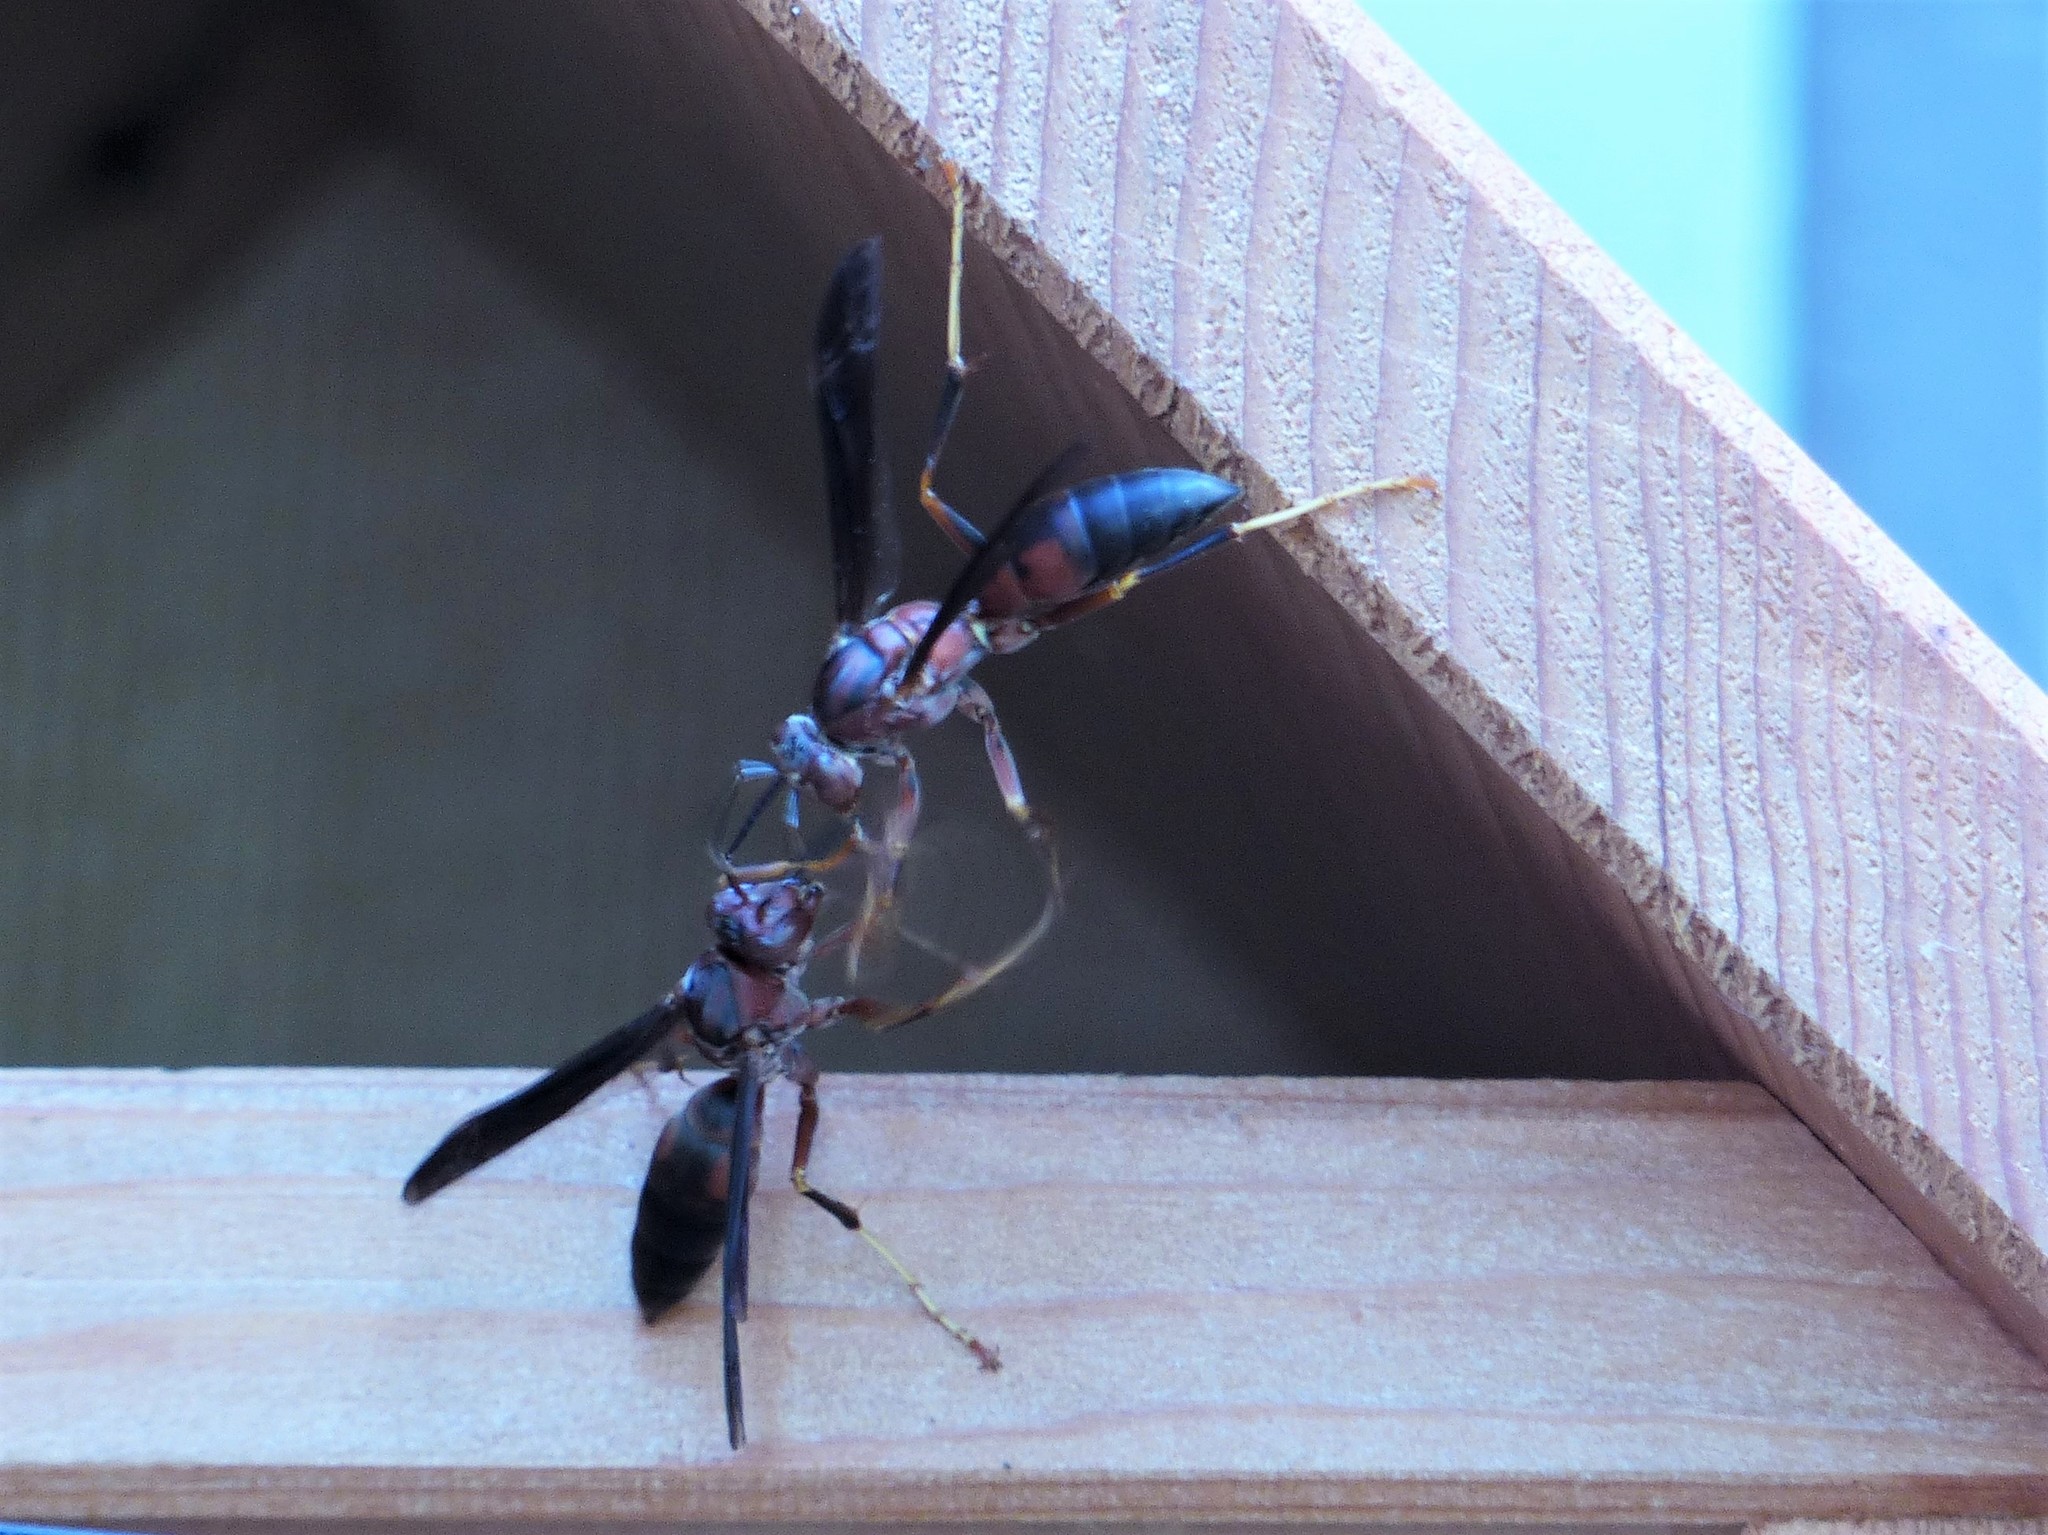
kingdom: Animalia
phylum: Arthropoda
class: Insecta
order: Hymenoptera
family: Eumenidae
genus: Polistes
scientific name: Polistes metricus
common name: Metric paper wasp
